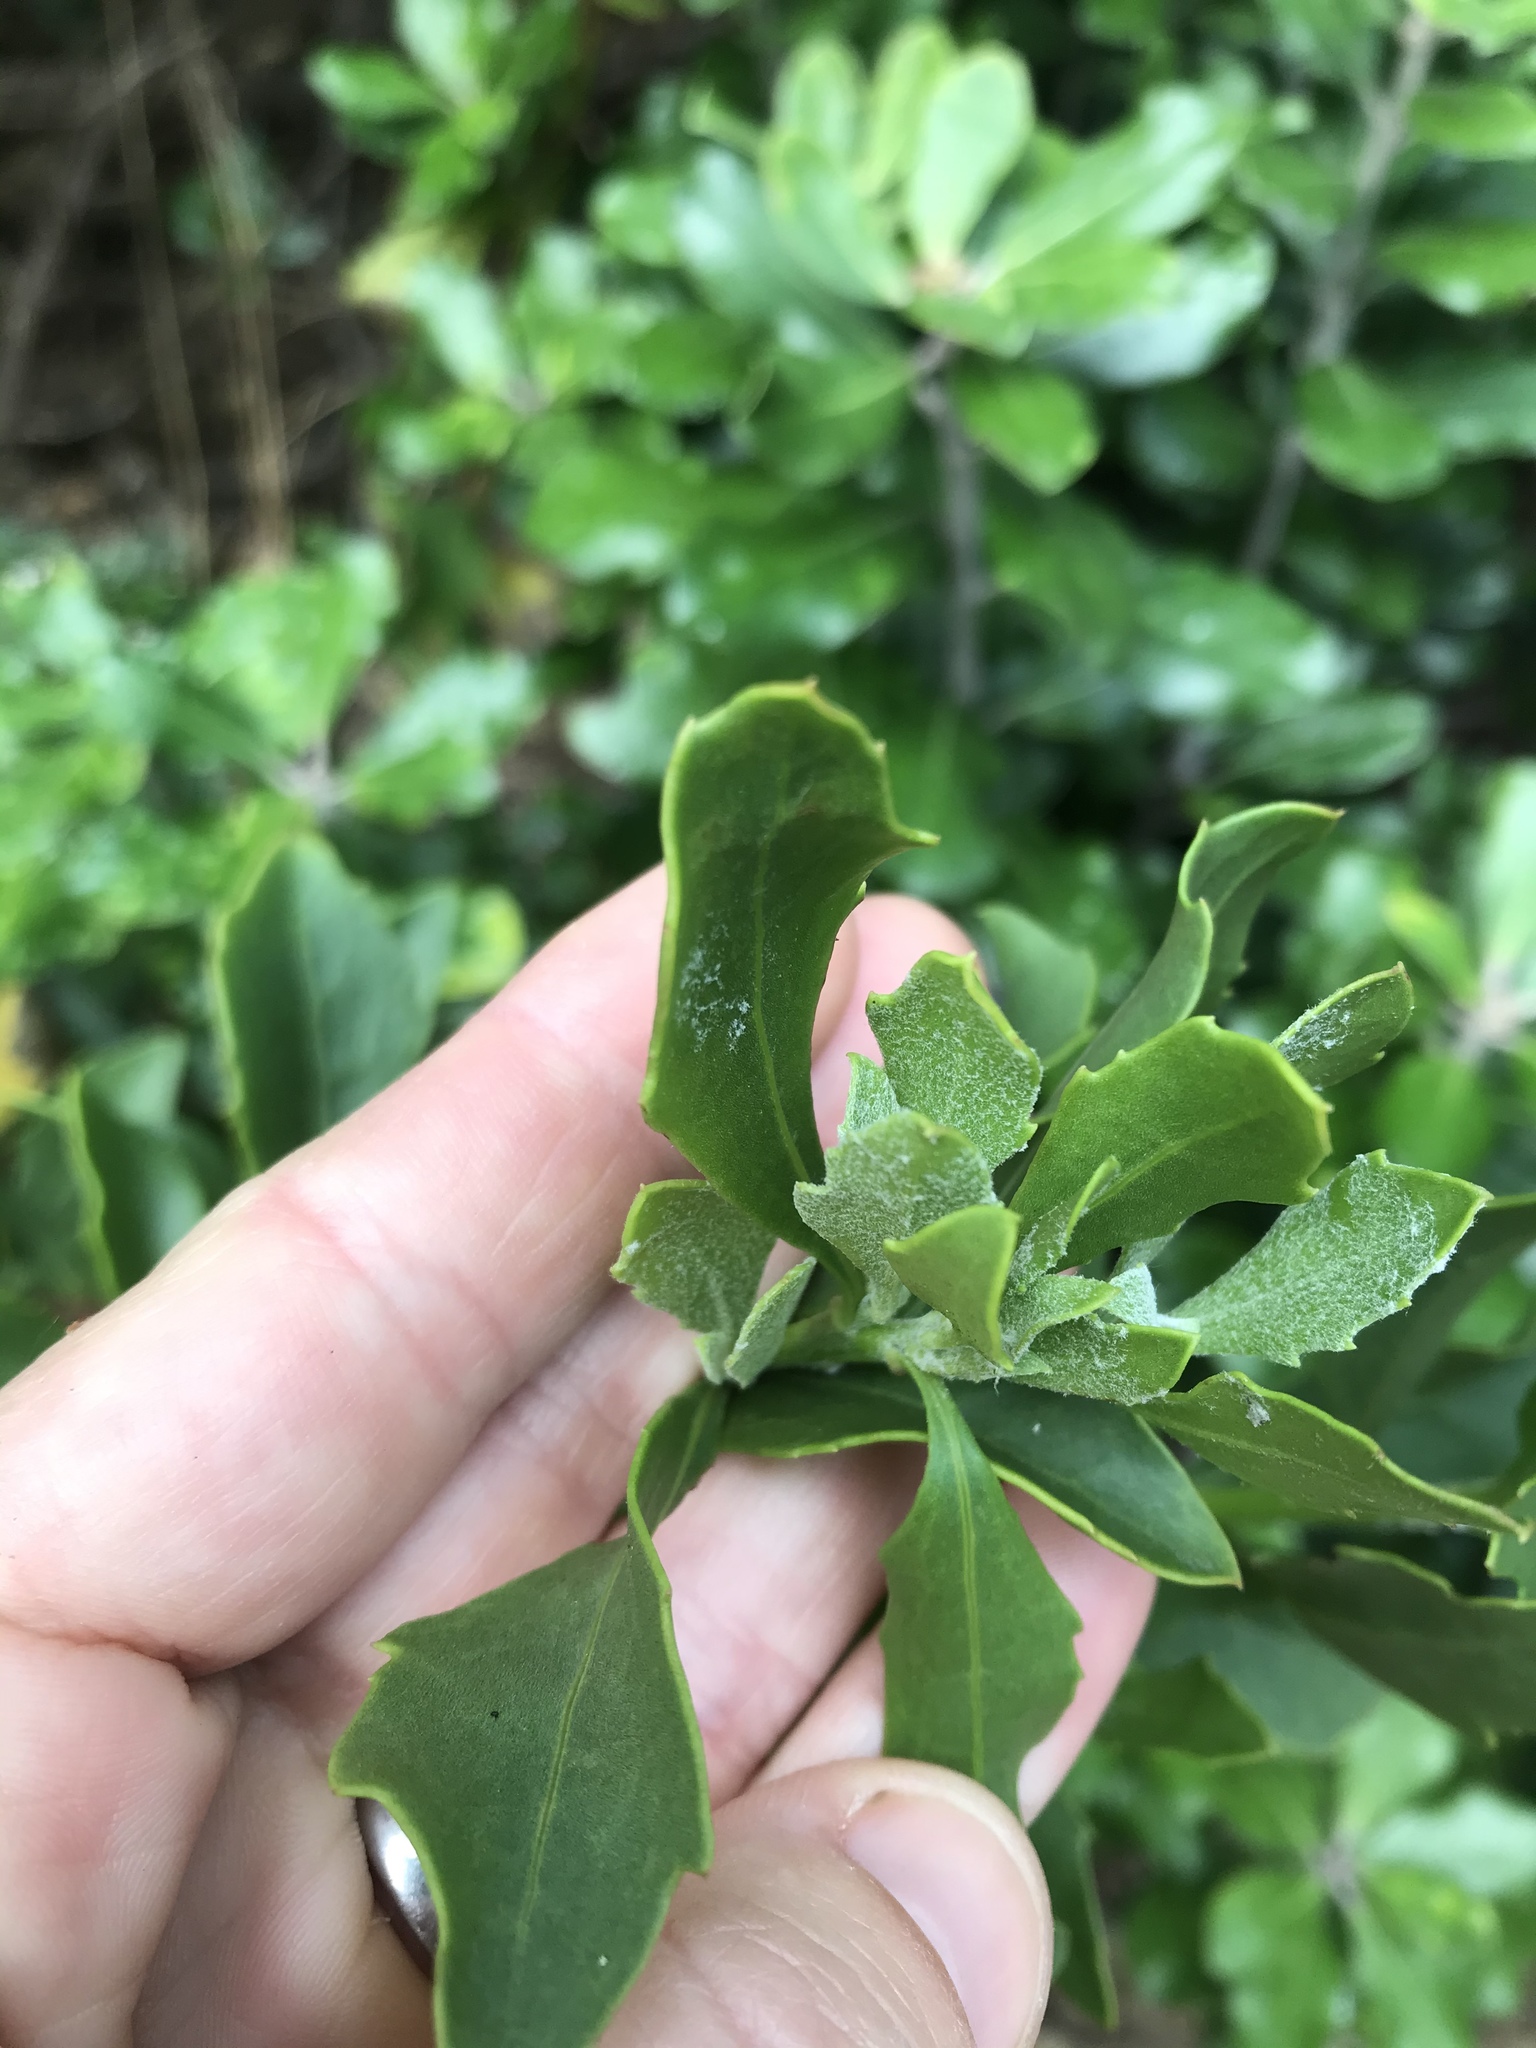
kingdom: Plantae
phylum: Tracheophyta
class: Magnoliopsida
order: Asterales
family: Asteraceae
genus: Osteospermum
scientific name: Osteospermum moniliferum
